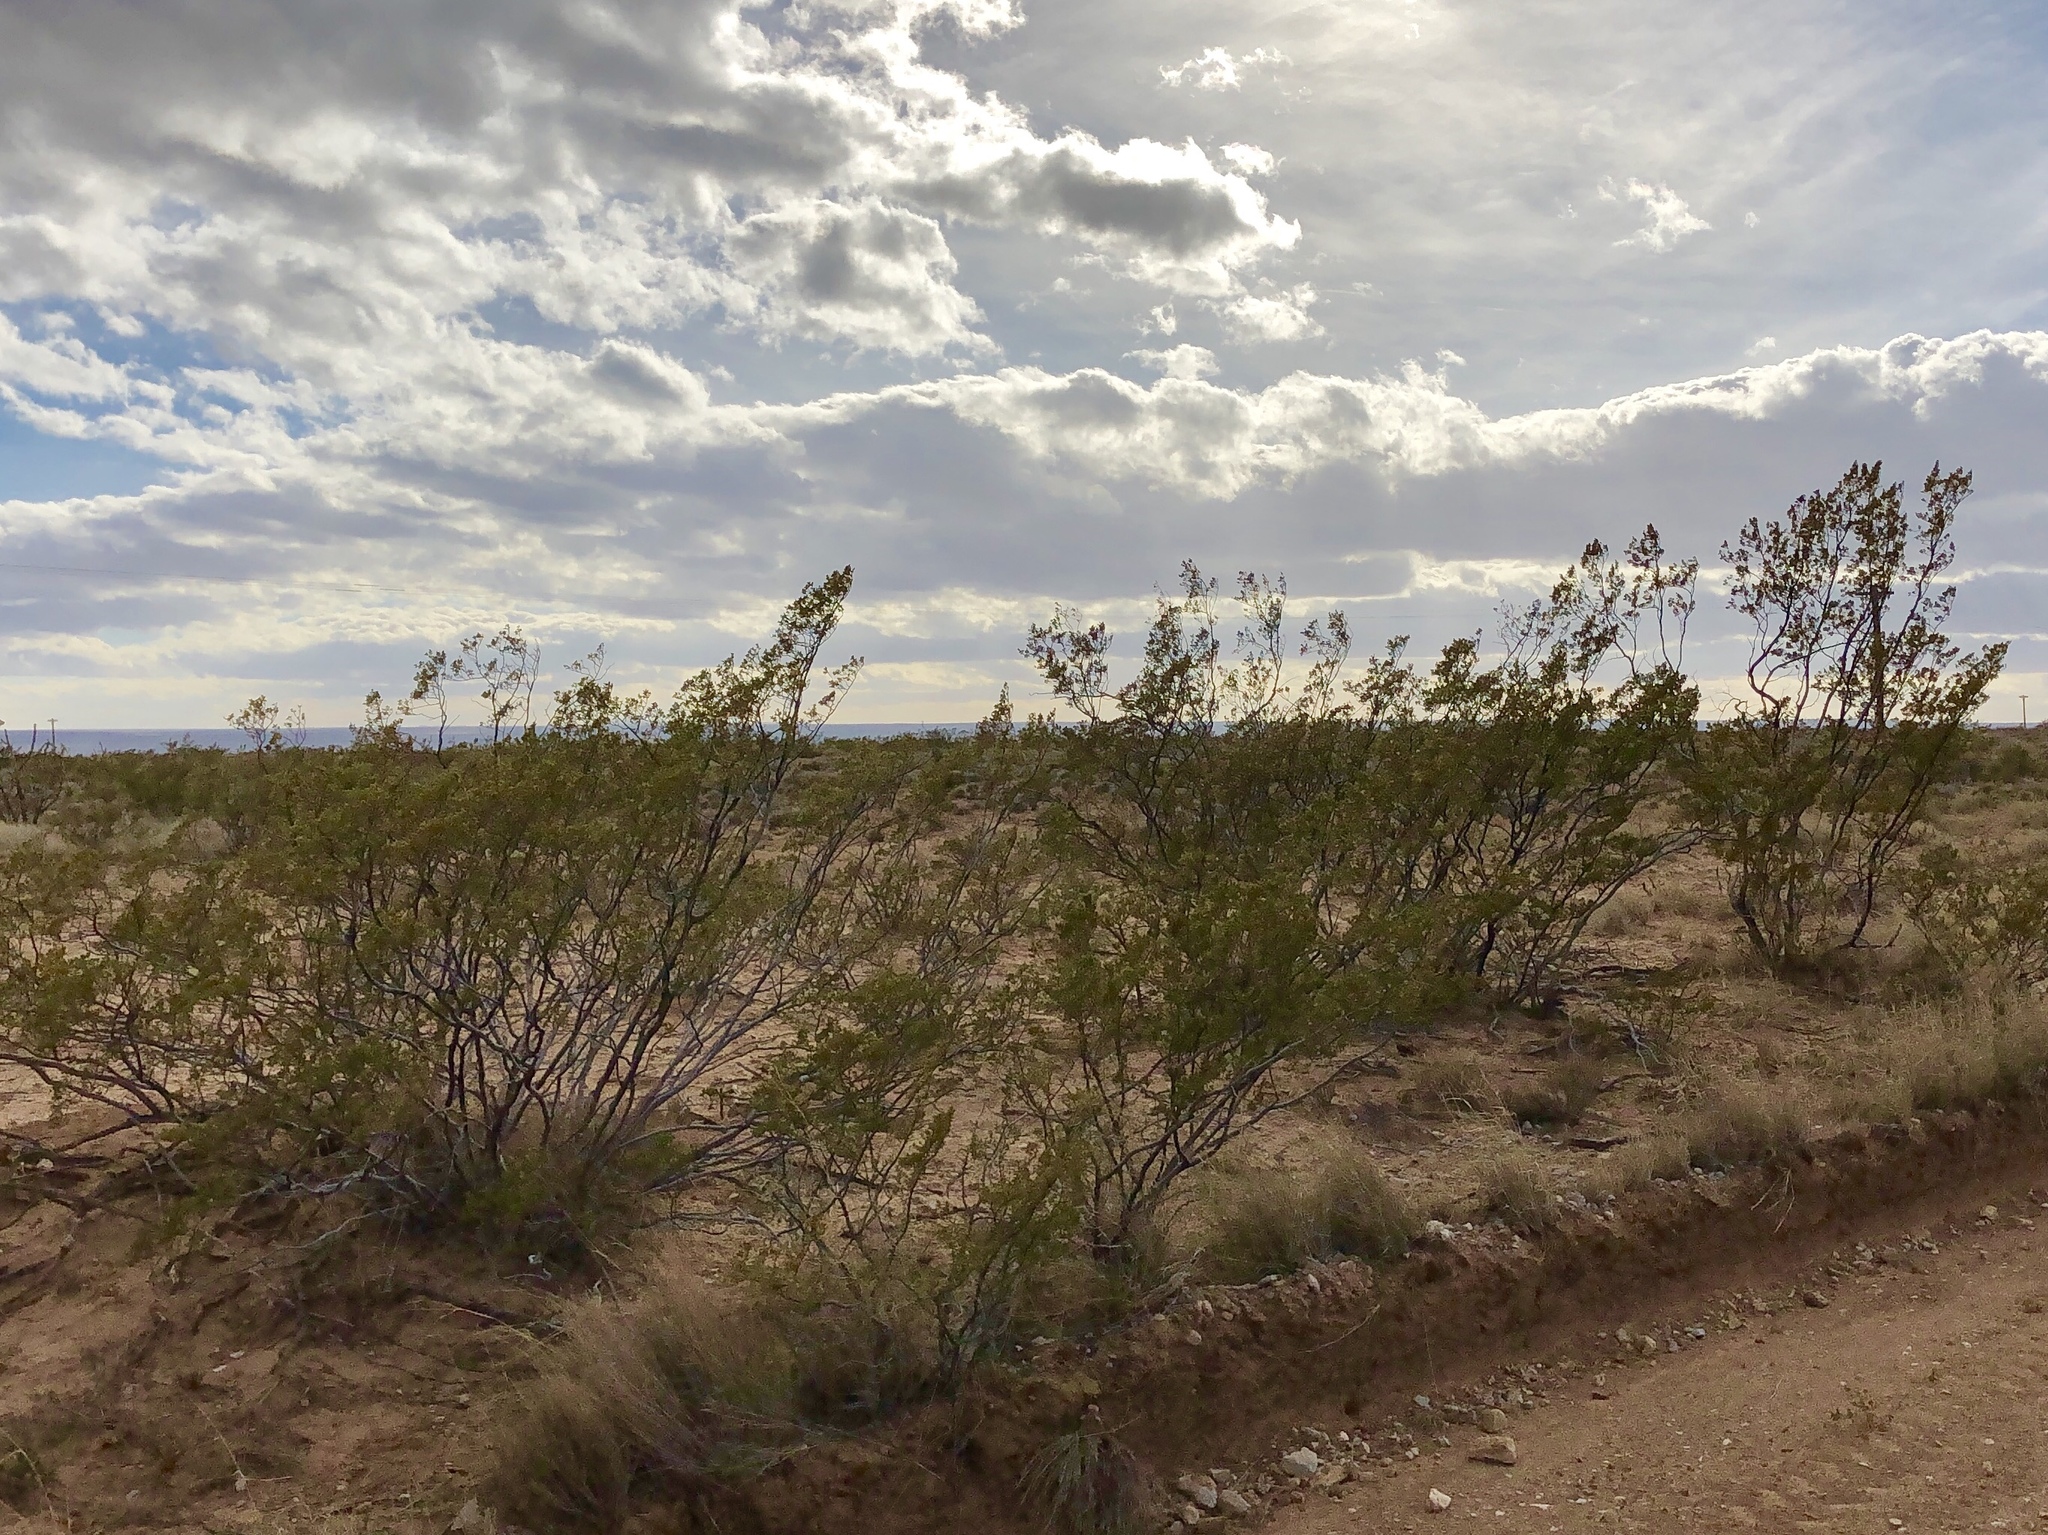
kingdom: Plantae
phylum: Tracheophyta
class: Magnoliopsida
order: Zygophyllales
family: Zygophyllaceae
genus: Larrea
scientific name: Larrea tridentata
